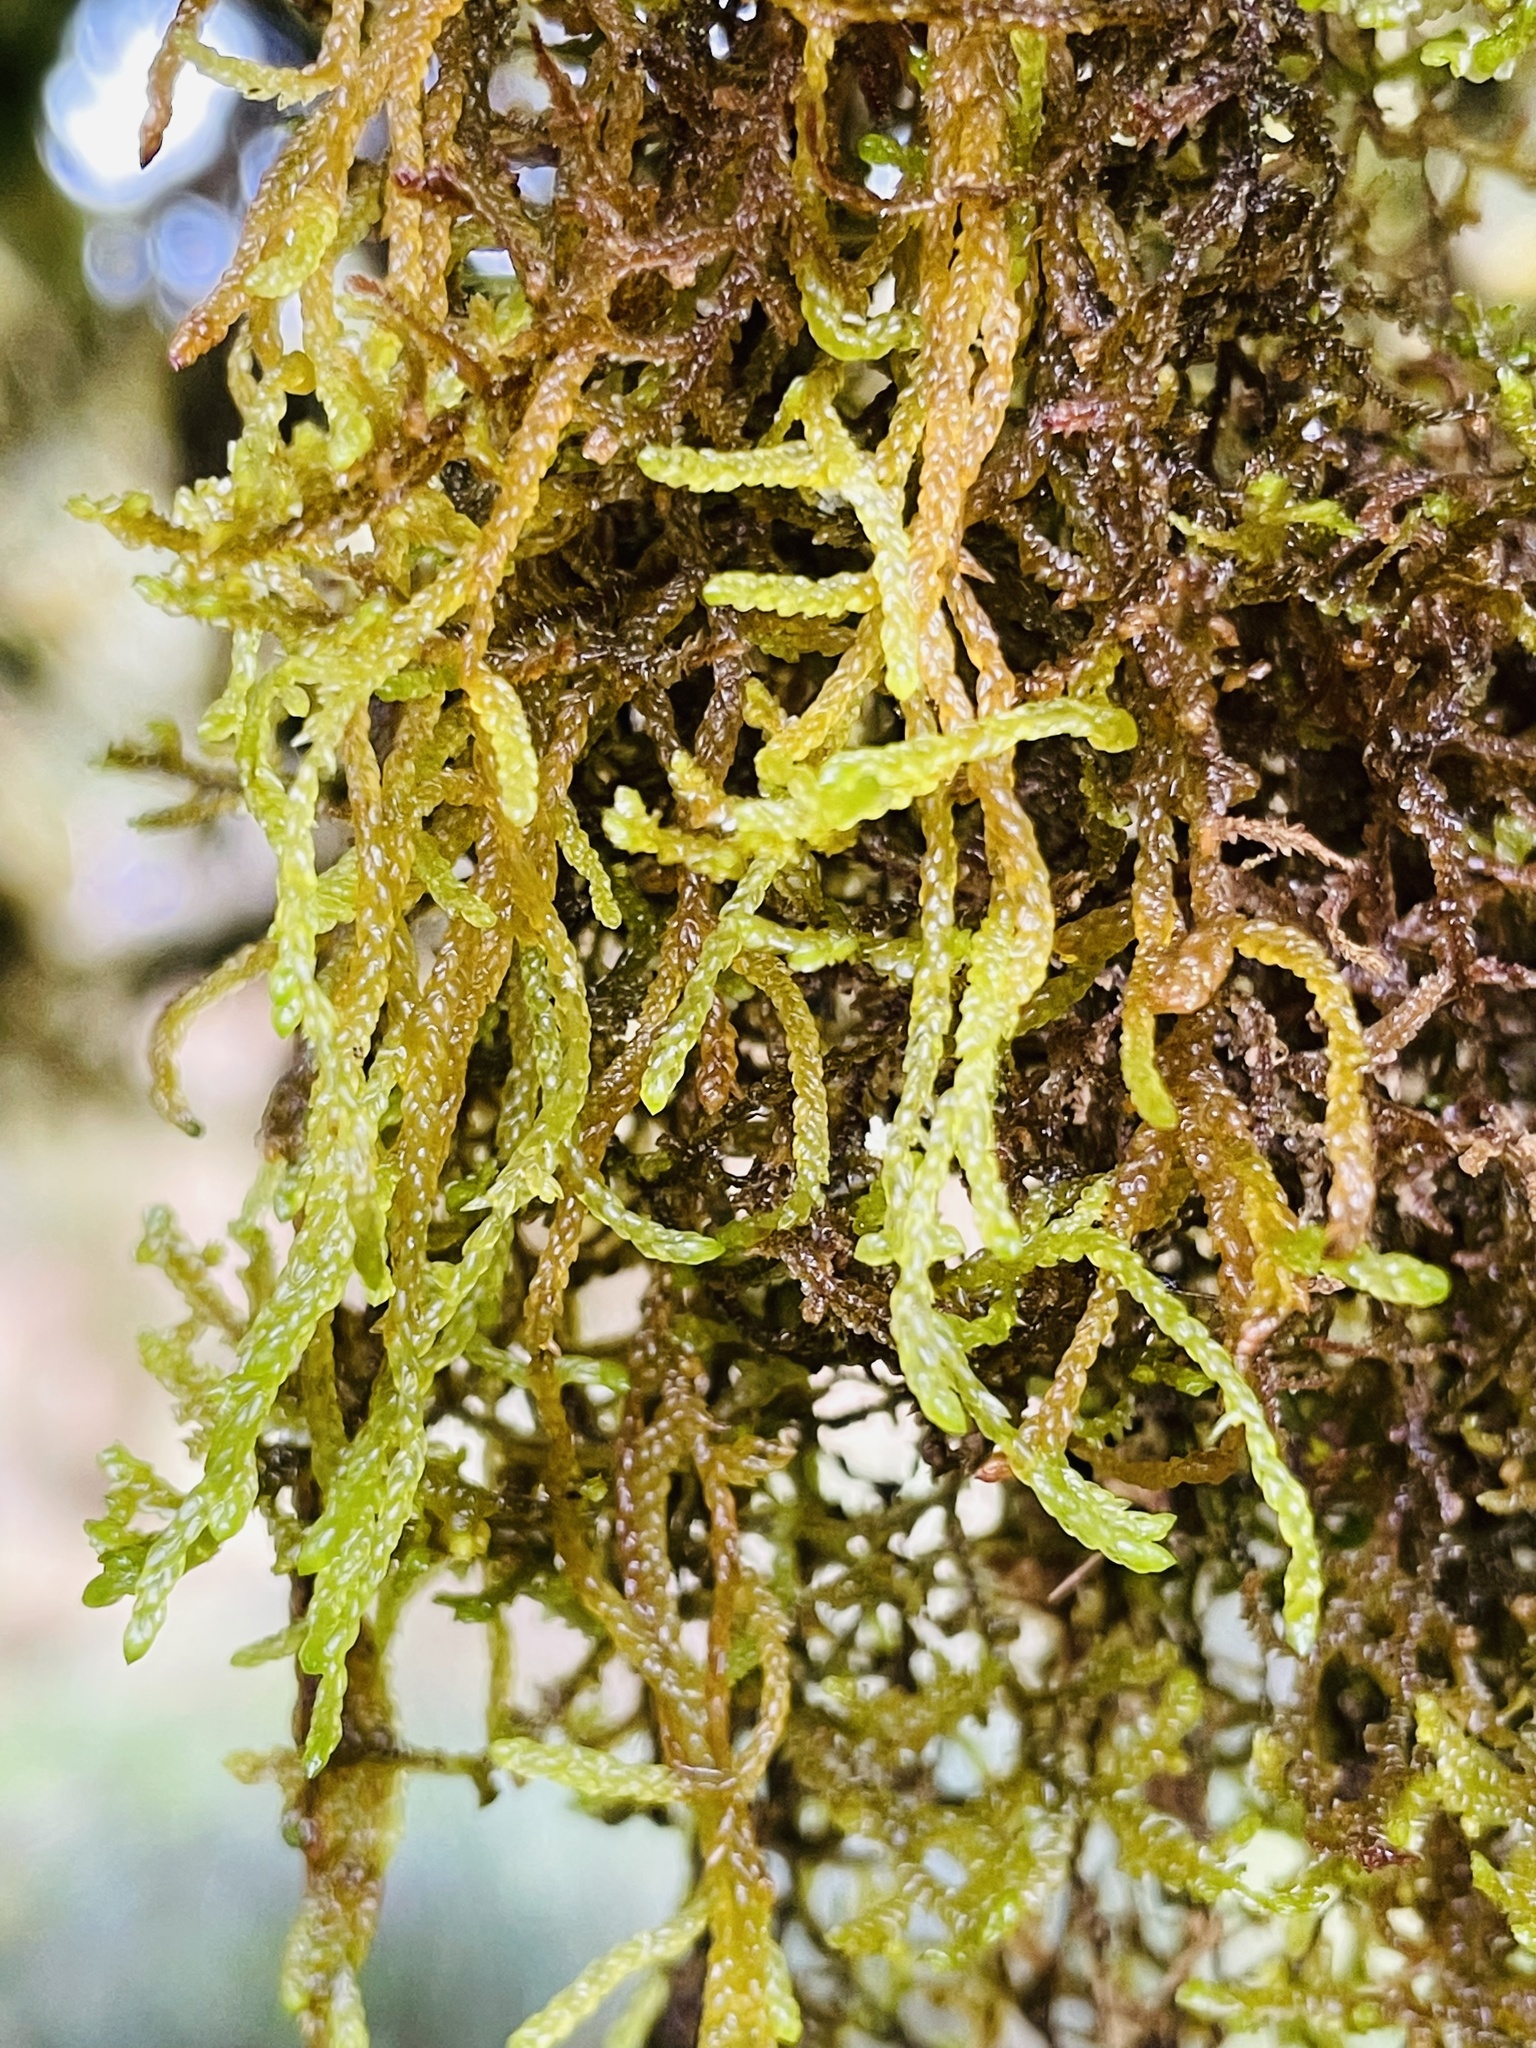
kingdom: Plantae
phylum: Bryophyta
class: Bryopsida
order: Hypnales
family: Lembophyllaceae
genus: Weymouthia
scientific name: Weymouthia mollis
